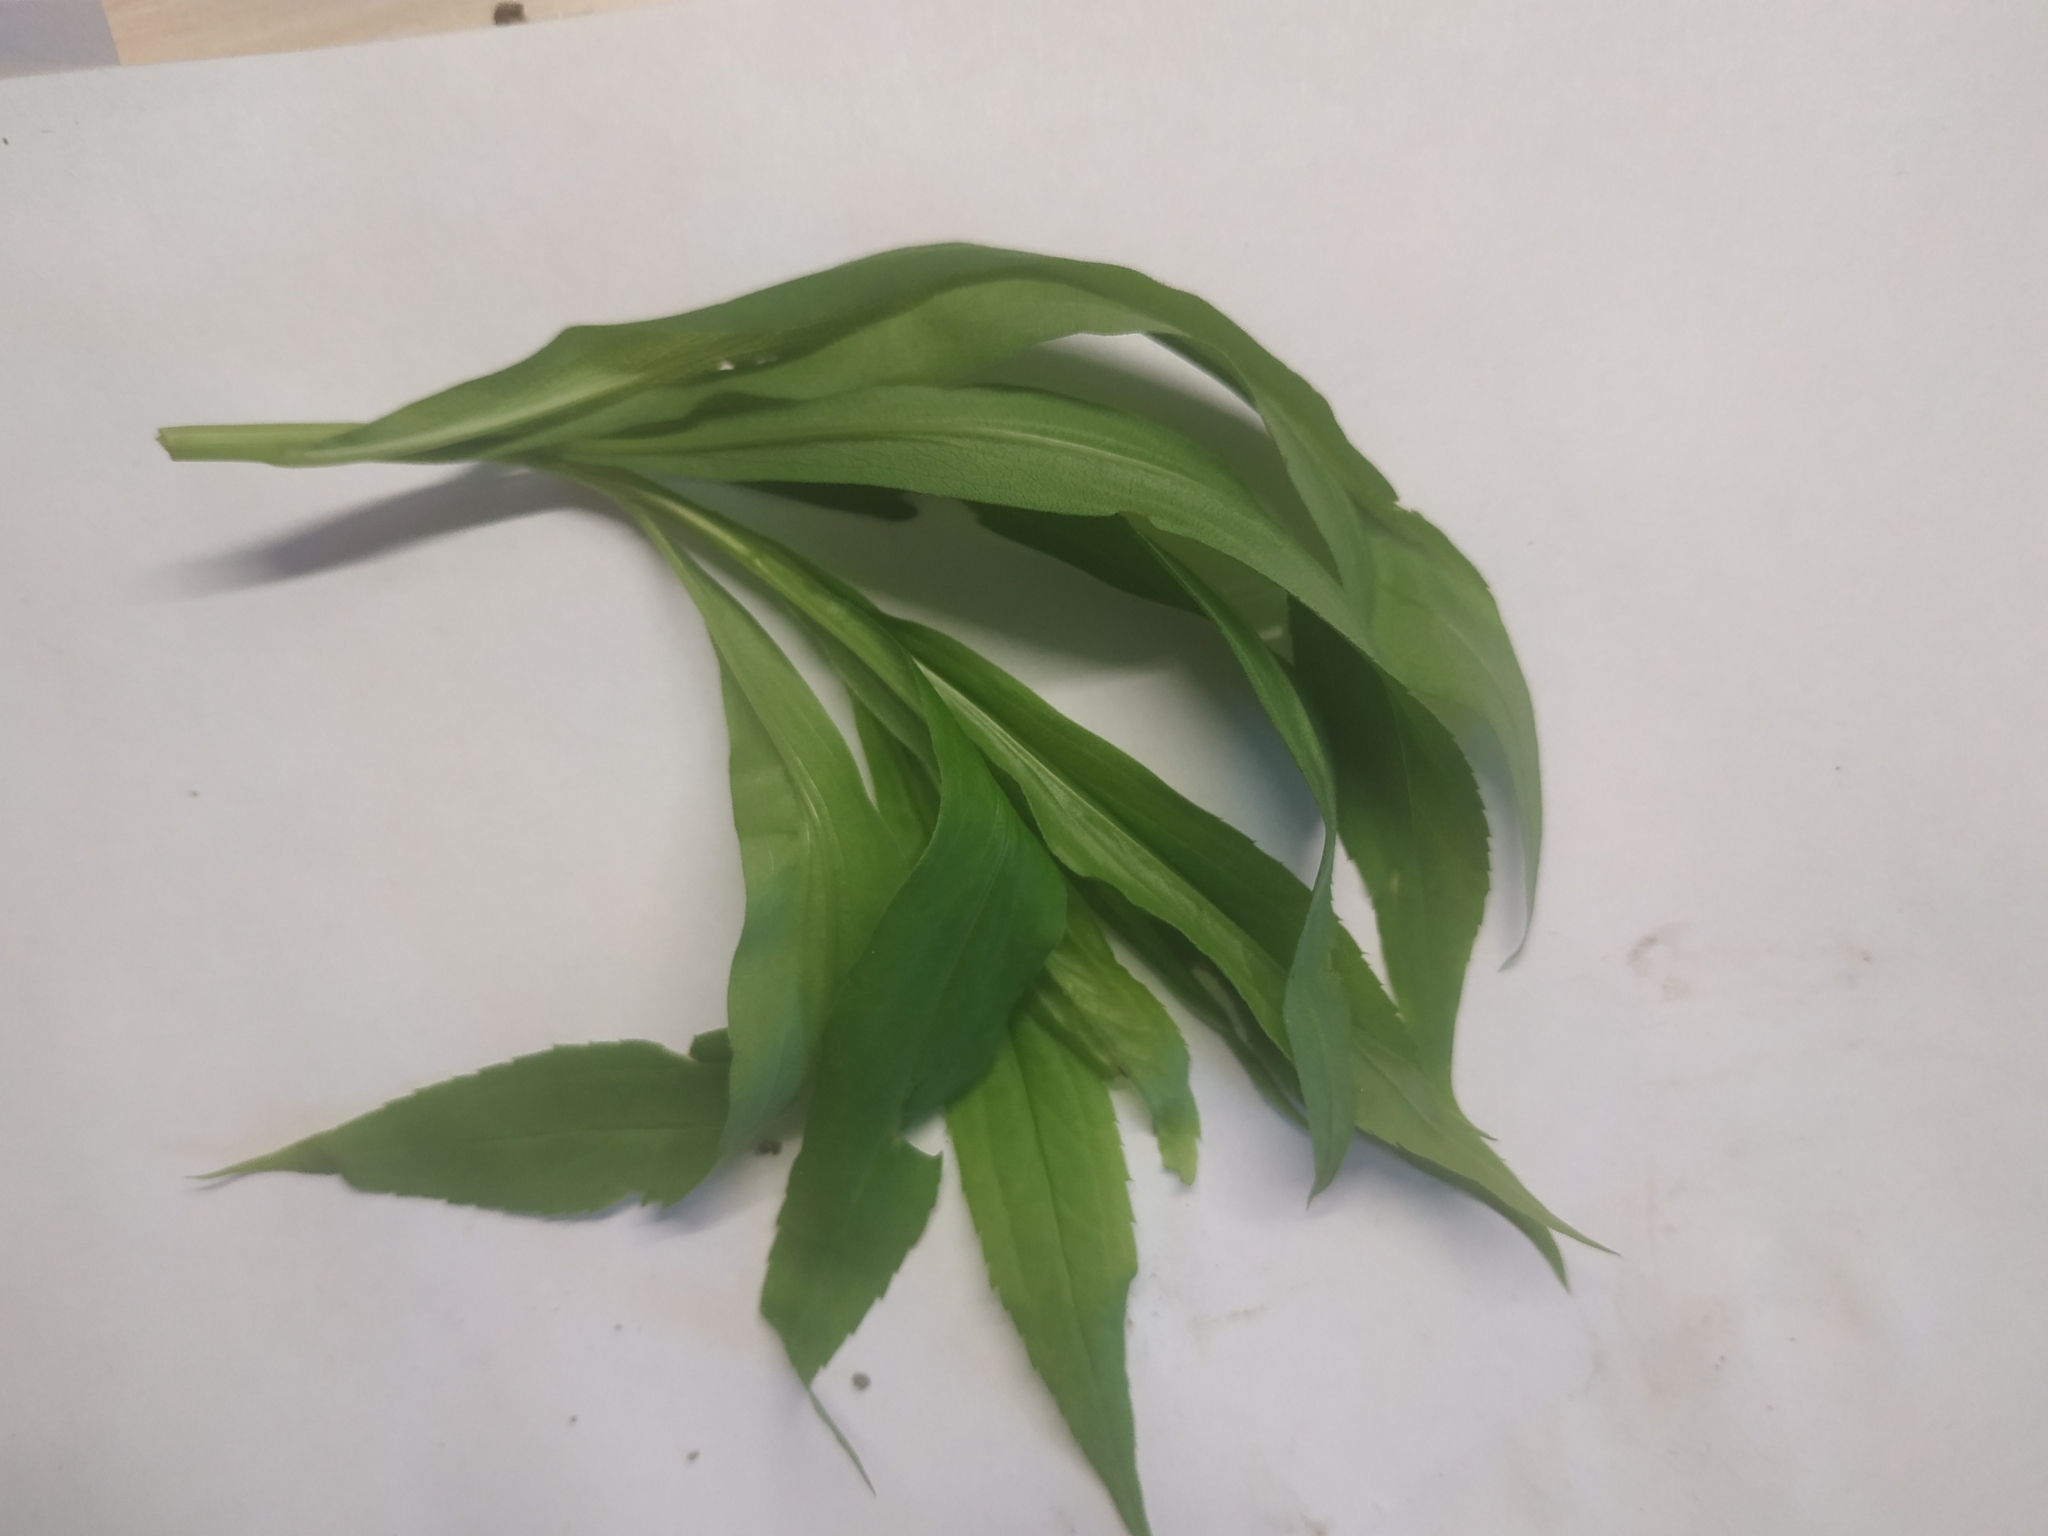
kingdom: Plantae
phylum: Tracheophyta
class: Magnoliopsida
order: Asterales
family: Asteraceae
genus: Solidago
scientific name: Solidago gigantea
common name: Giant goldenrod
